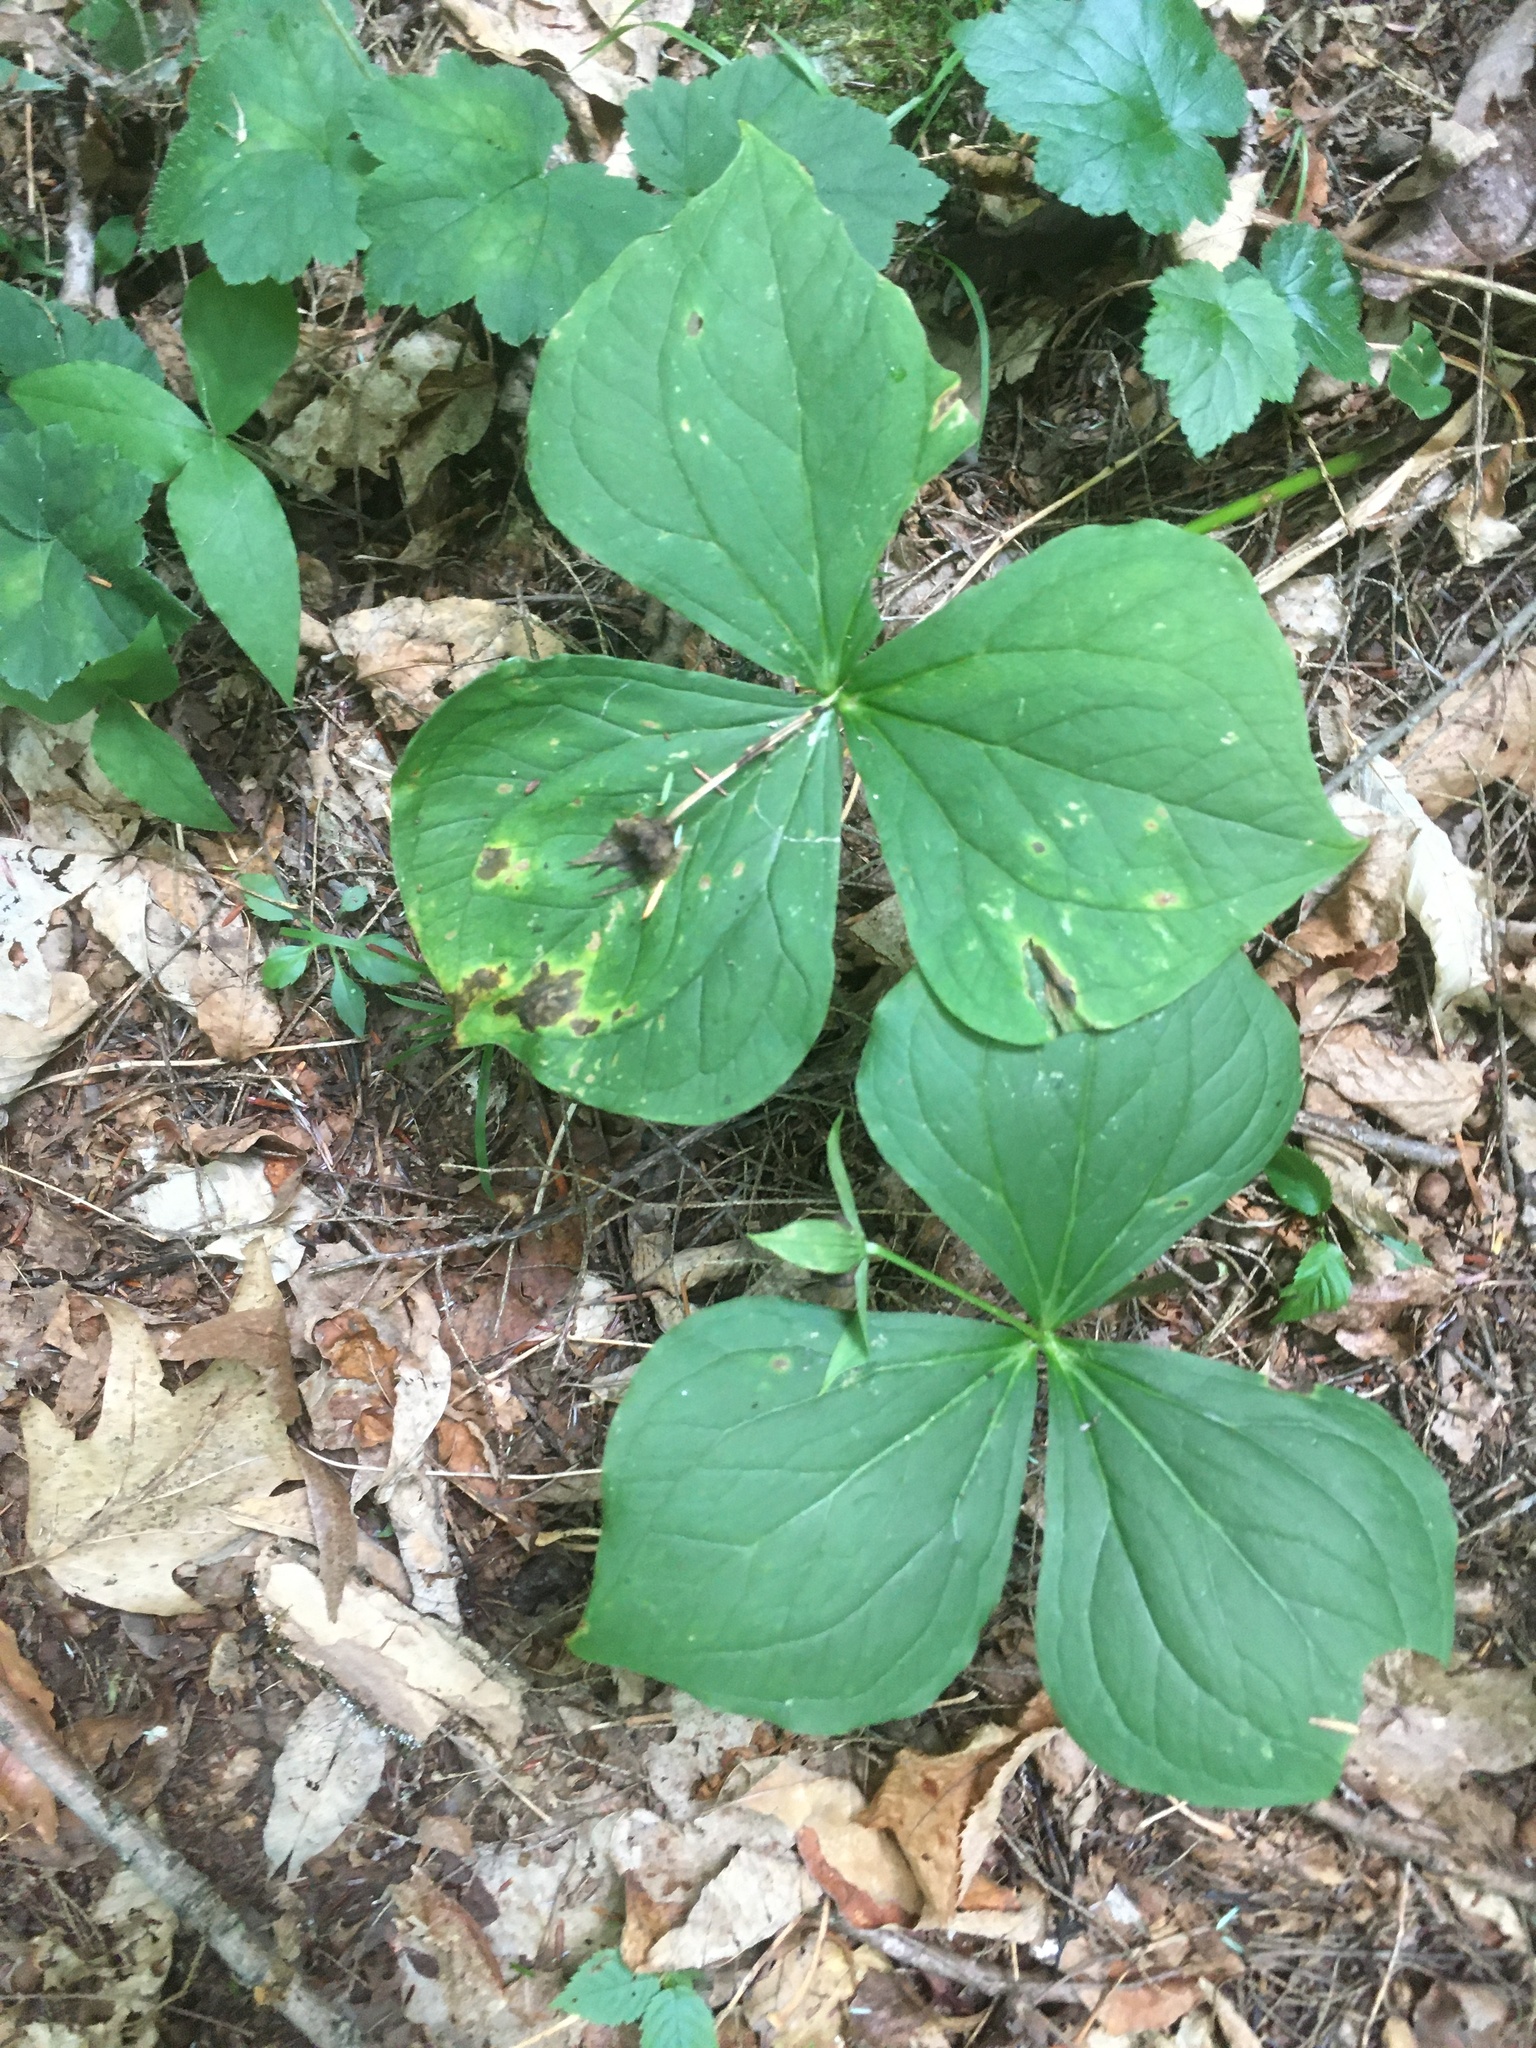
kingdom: Plantae
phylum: Tracheophyta
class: Liliopsida
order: Liliales
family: Melanthiaceae
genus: Trillium
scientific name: Trillium erectum
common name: Purple trillium
